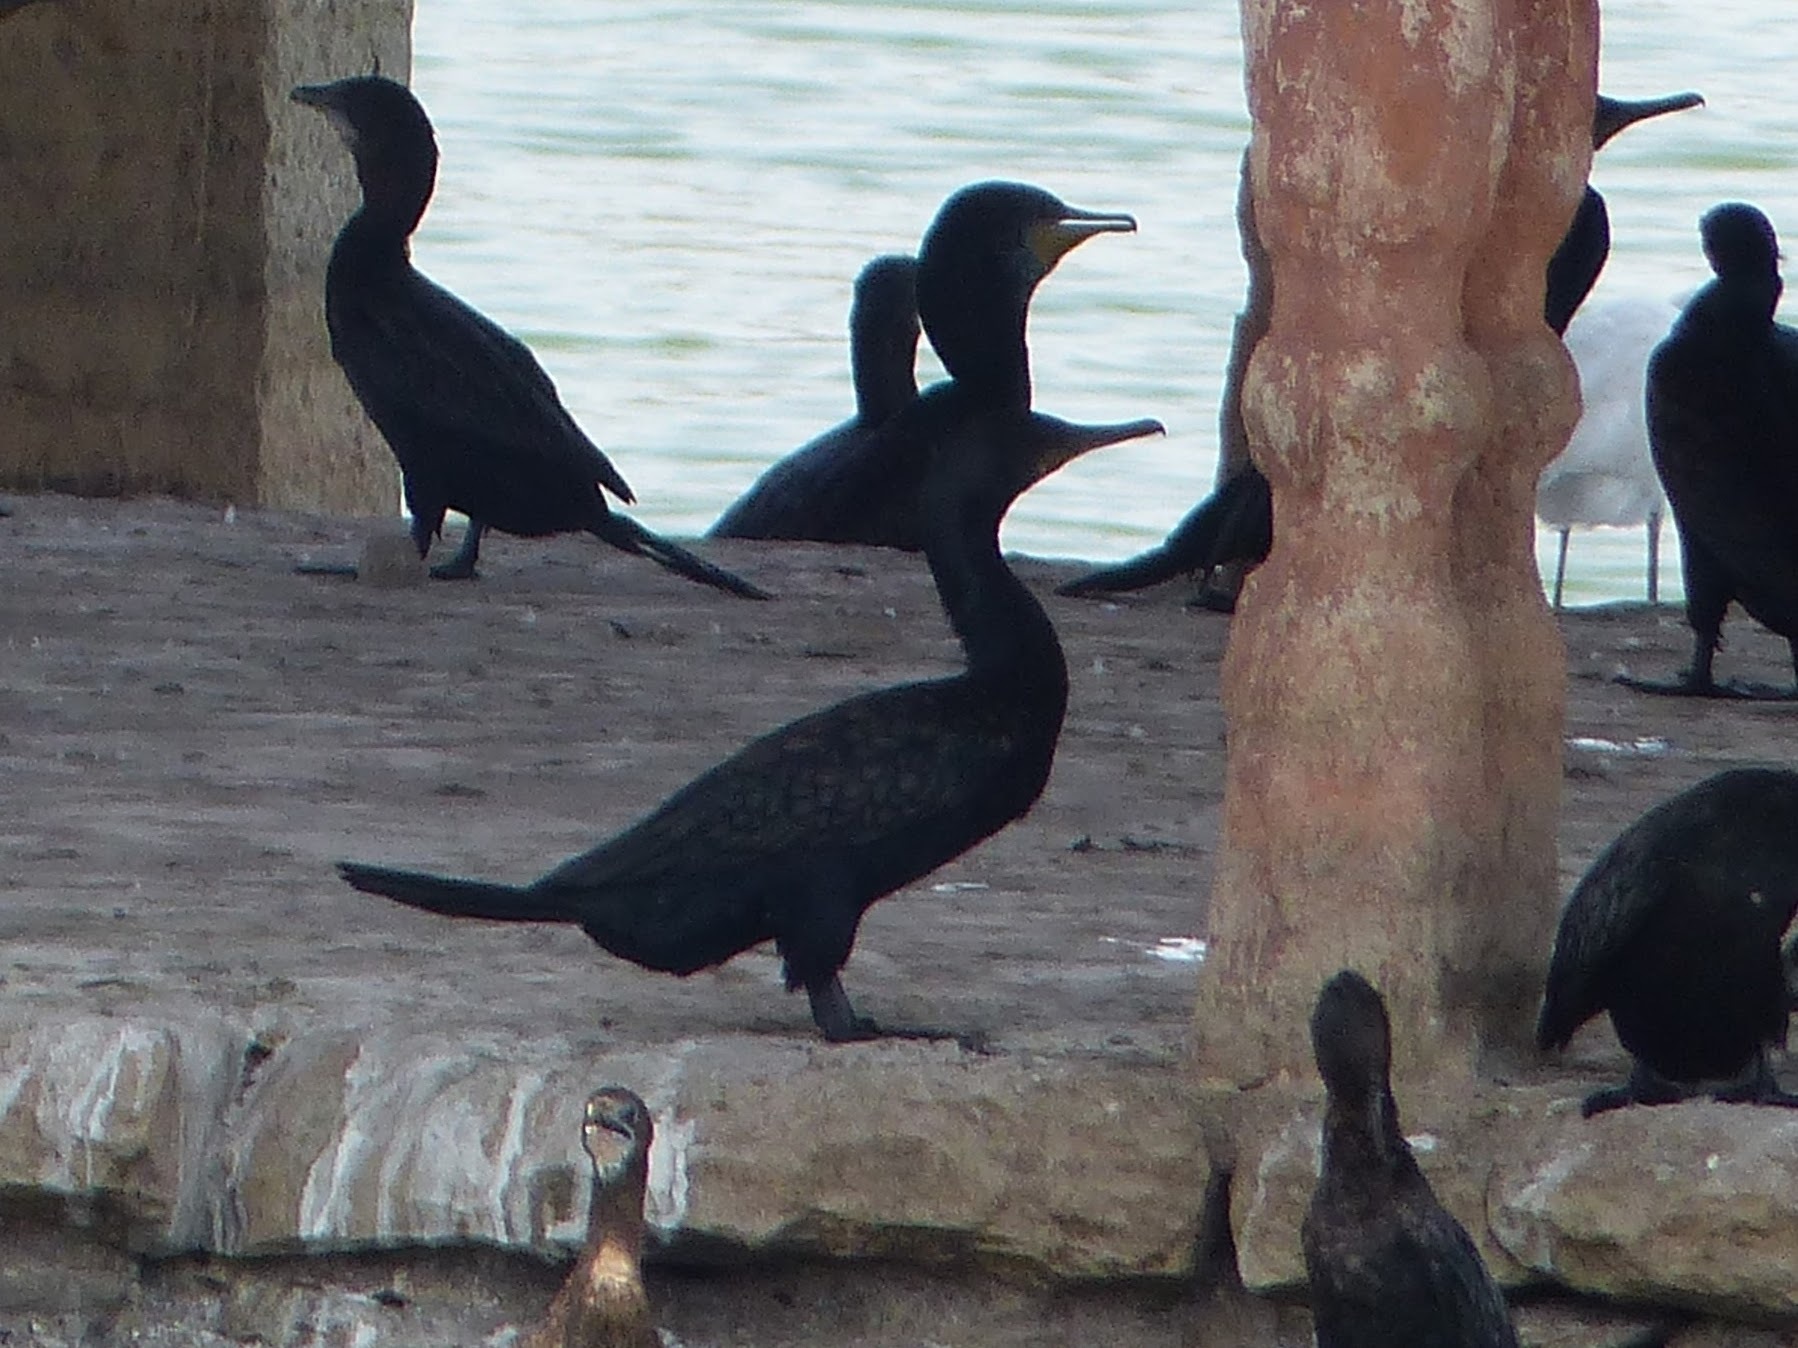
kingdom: Animalia
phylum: Chordata
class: Aves
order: Suliformes
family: Phalacrocoracidae
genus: Phalacrocorax
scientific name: Phalacrocorax fuscicollis
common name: Indian cormorant
